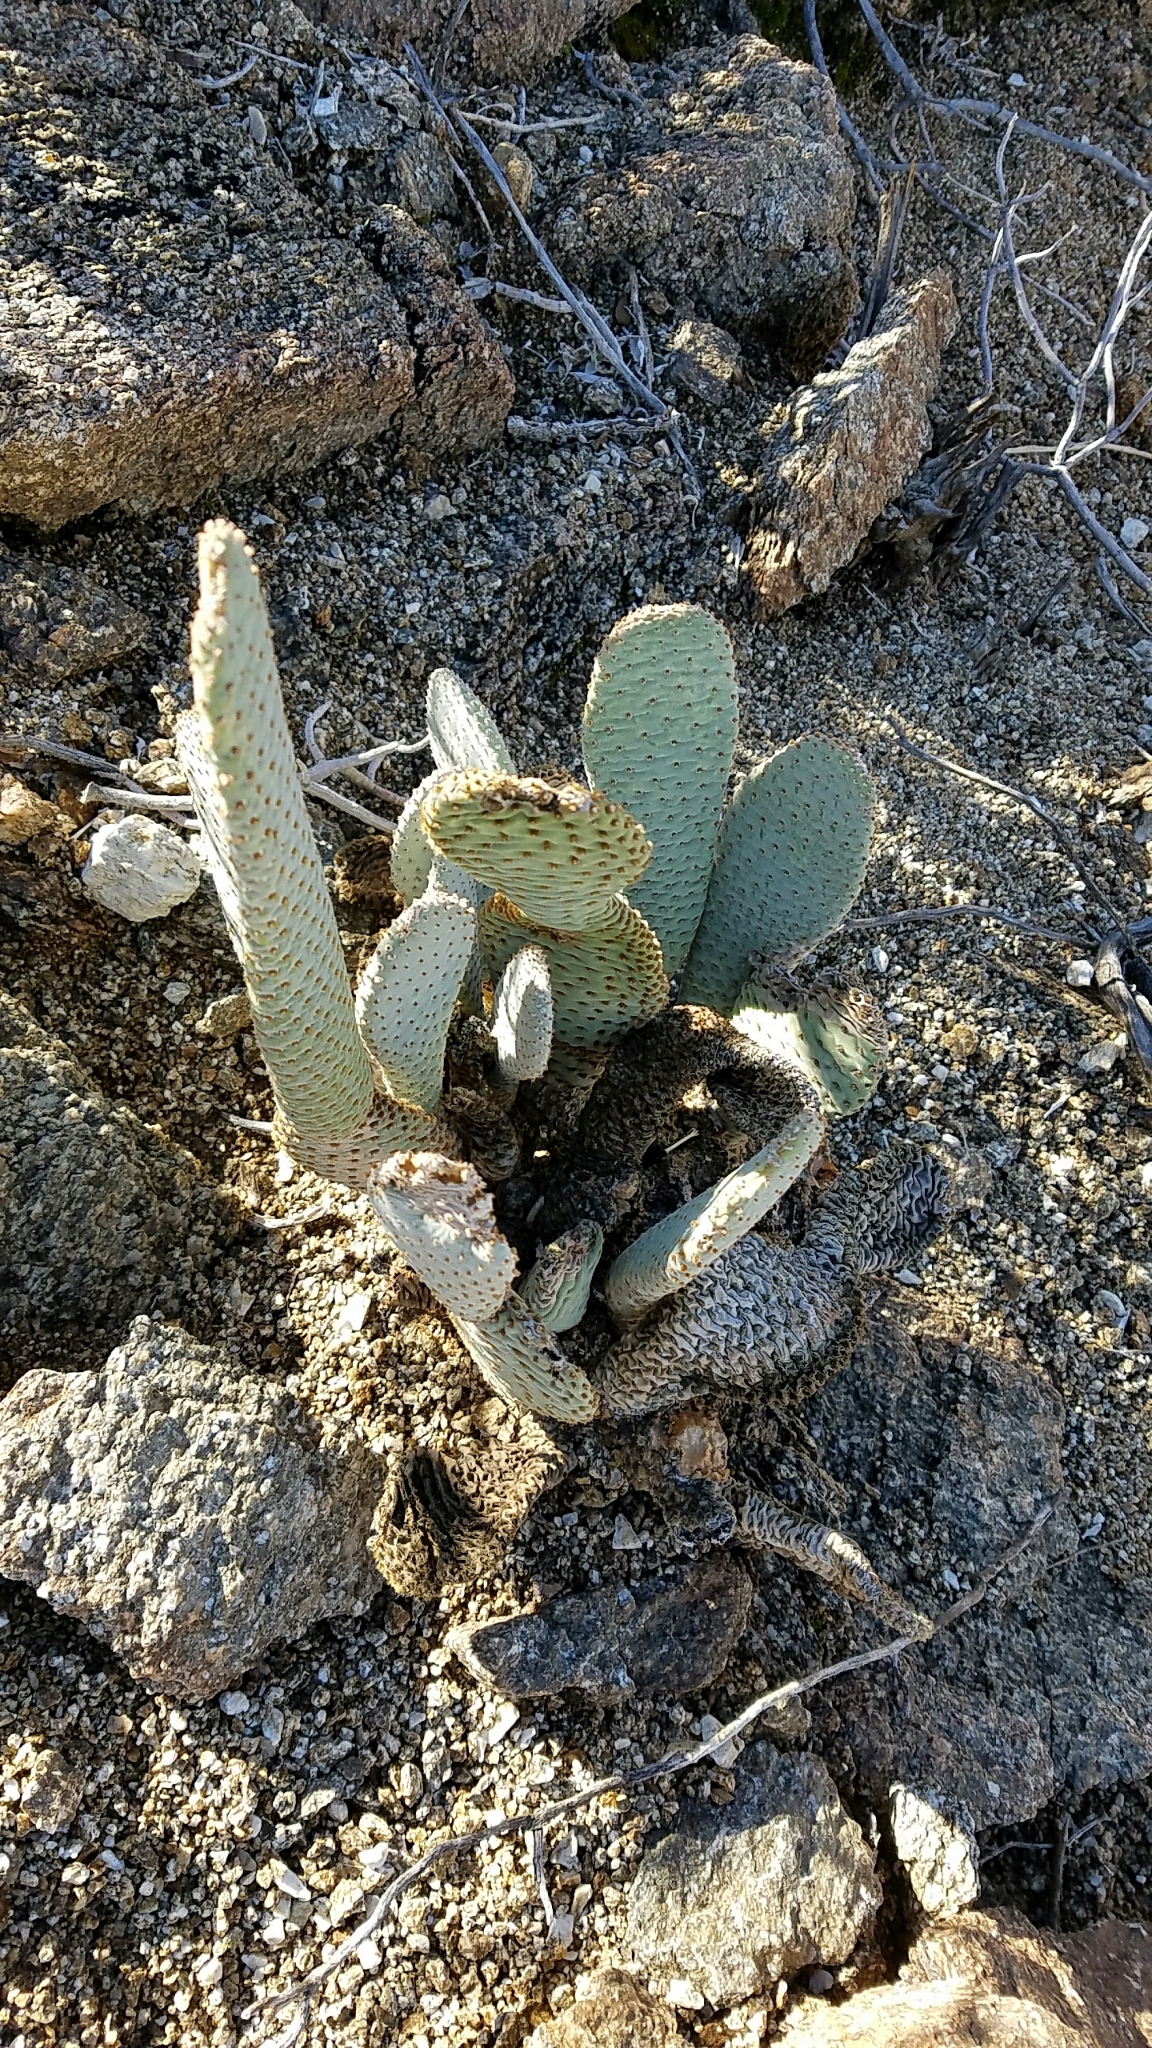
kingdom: Plantae
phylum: Tracheophyta
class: Magnoliopsida
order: Caryophyllales
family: Cactaceae
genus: Opuntia
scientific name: Opuntia basilaris
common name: Beavertail prickly-pear
